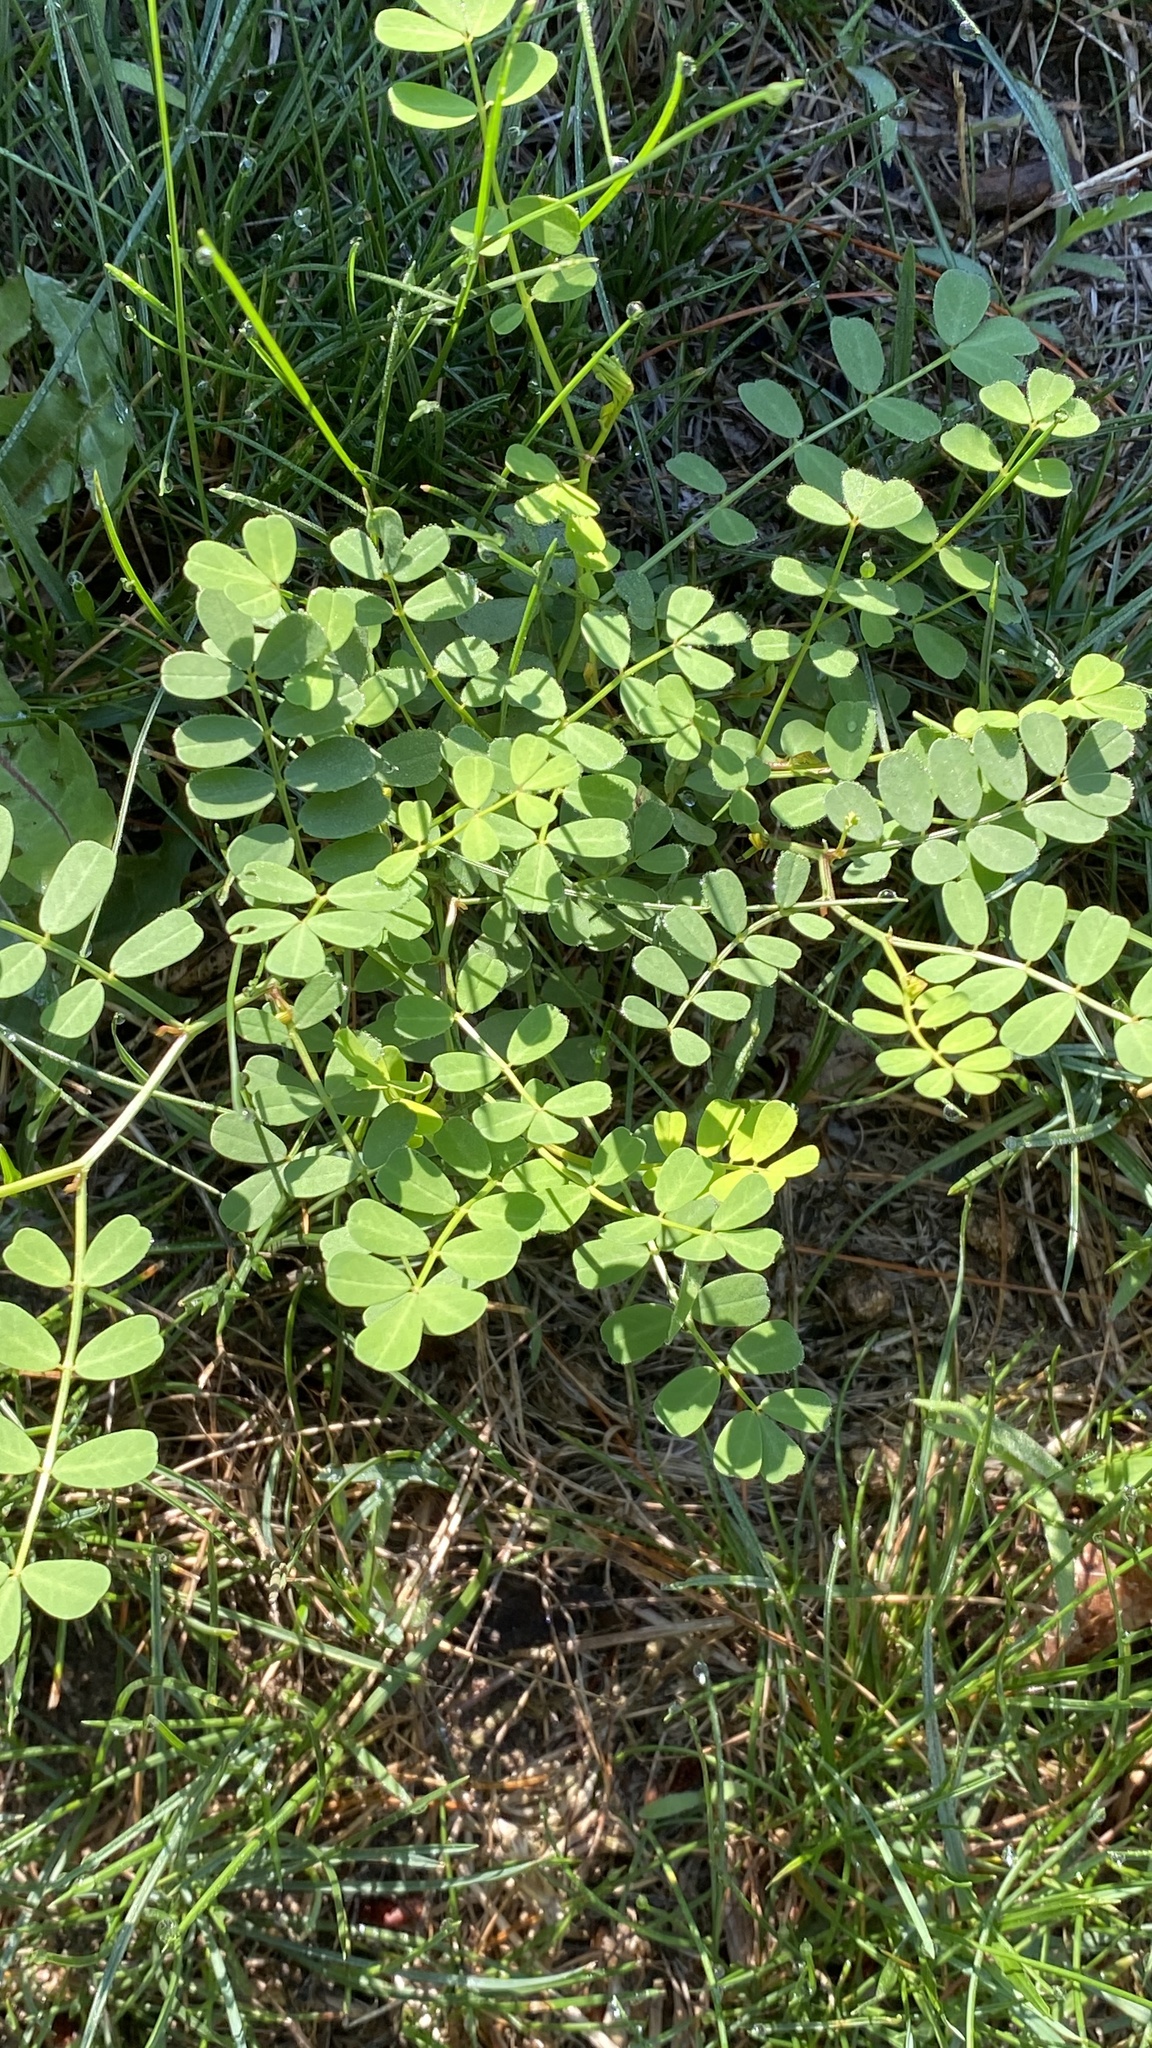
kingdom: Plantae
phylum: Tracheophyta
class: Magnoliopsida
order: Fabales
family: Fabaceae
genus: Coronilla
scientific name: Coronilla varia
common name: Crownvetch
